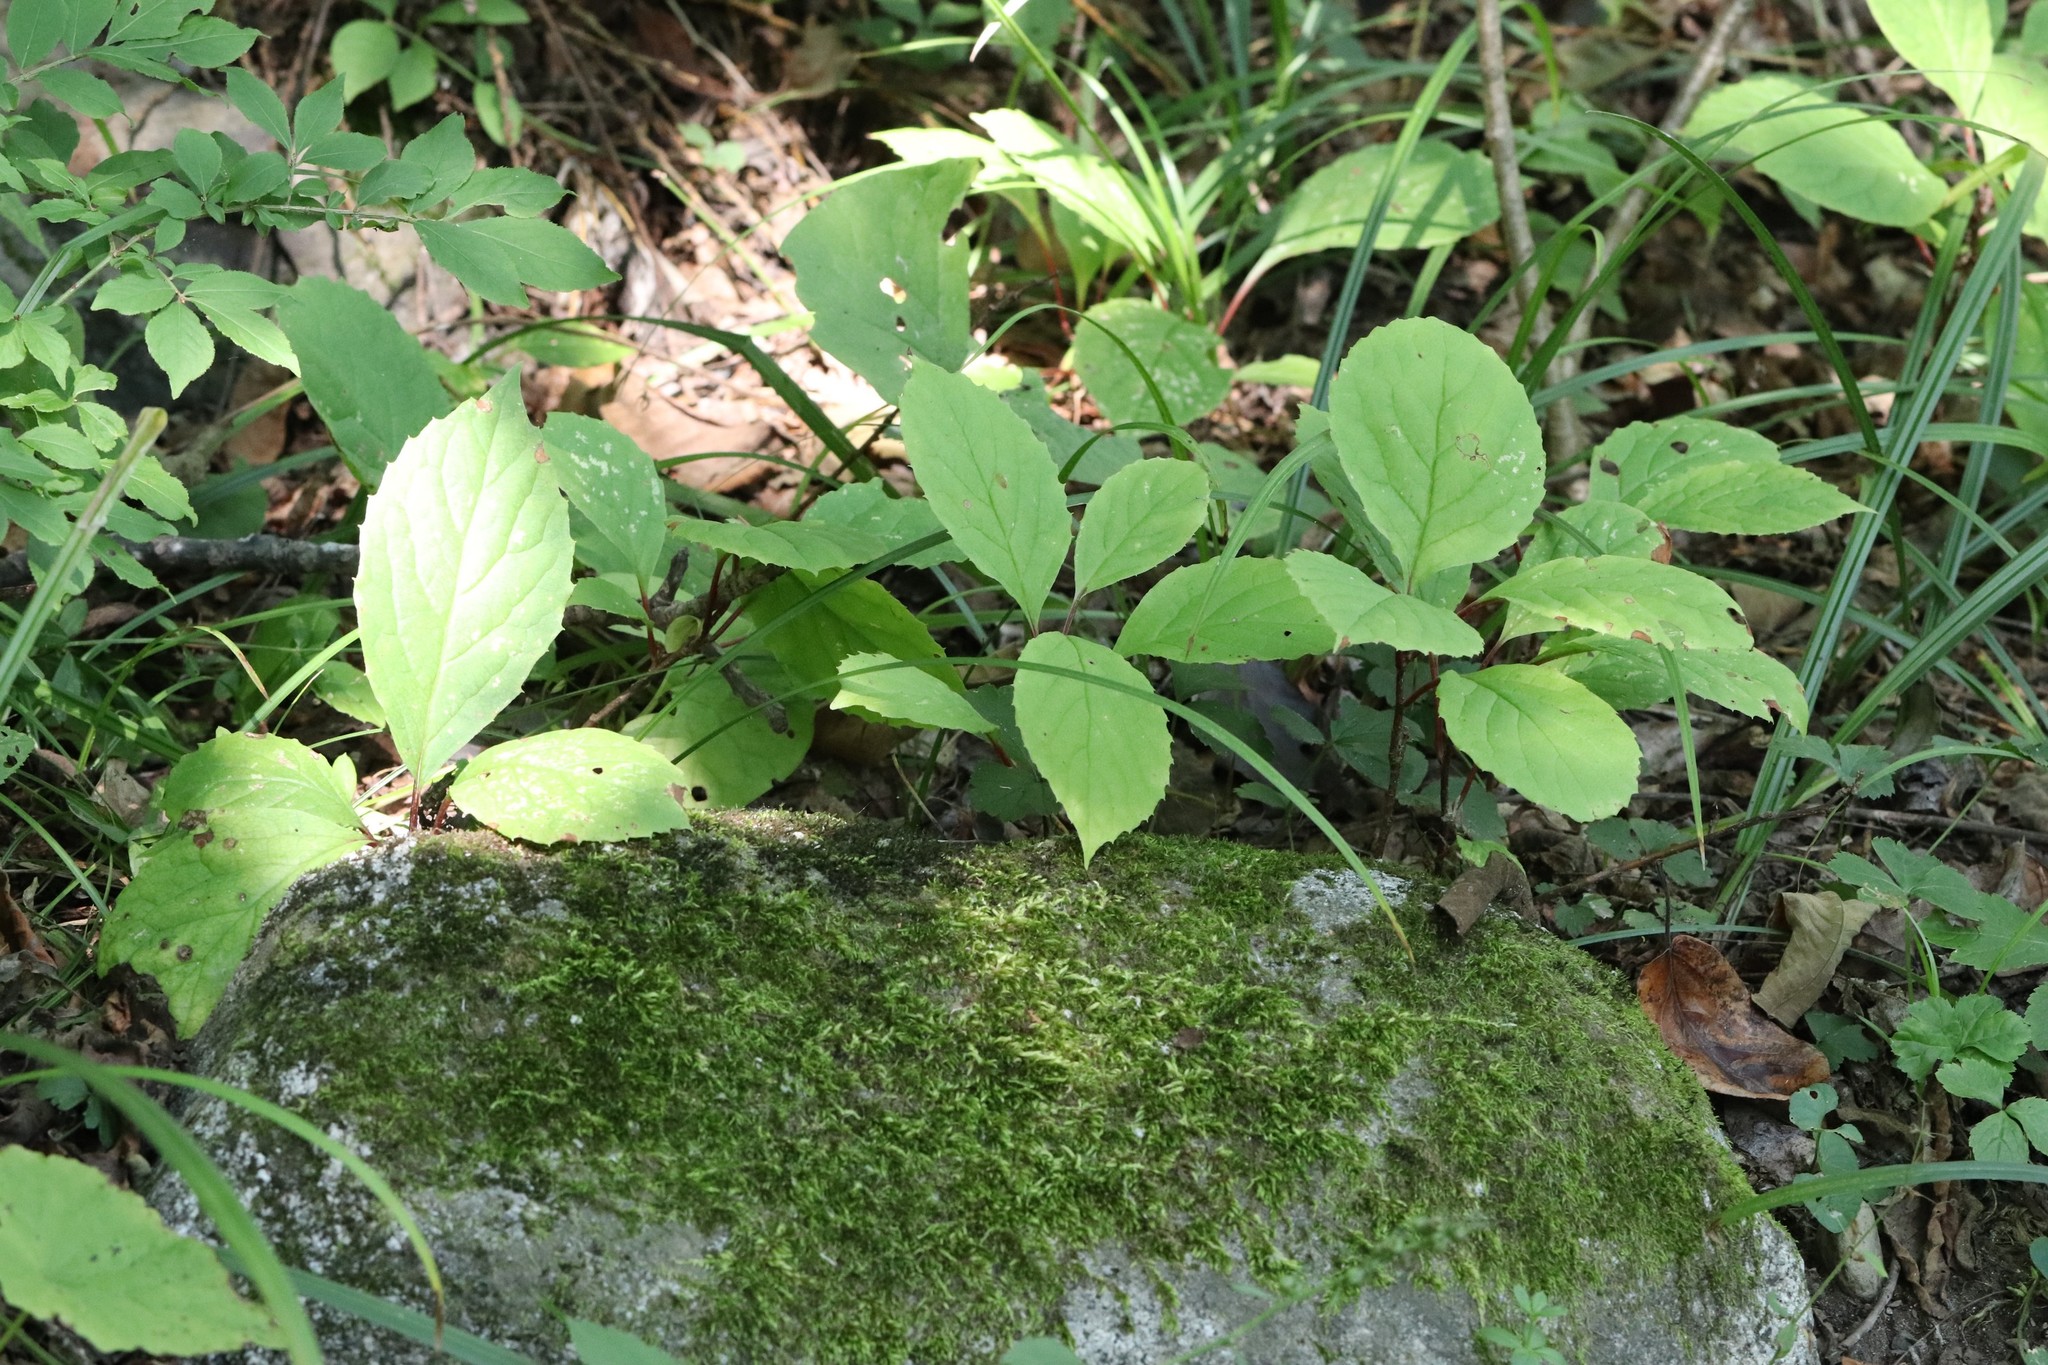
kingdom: Plantae
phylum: Tracheophyta
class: Magnoliopsida
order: Austrobaileyales
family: Schisandraceae
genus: Schisandra
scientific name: Schisandra chinensis
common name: Magnolia-vine
